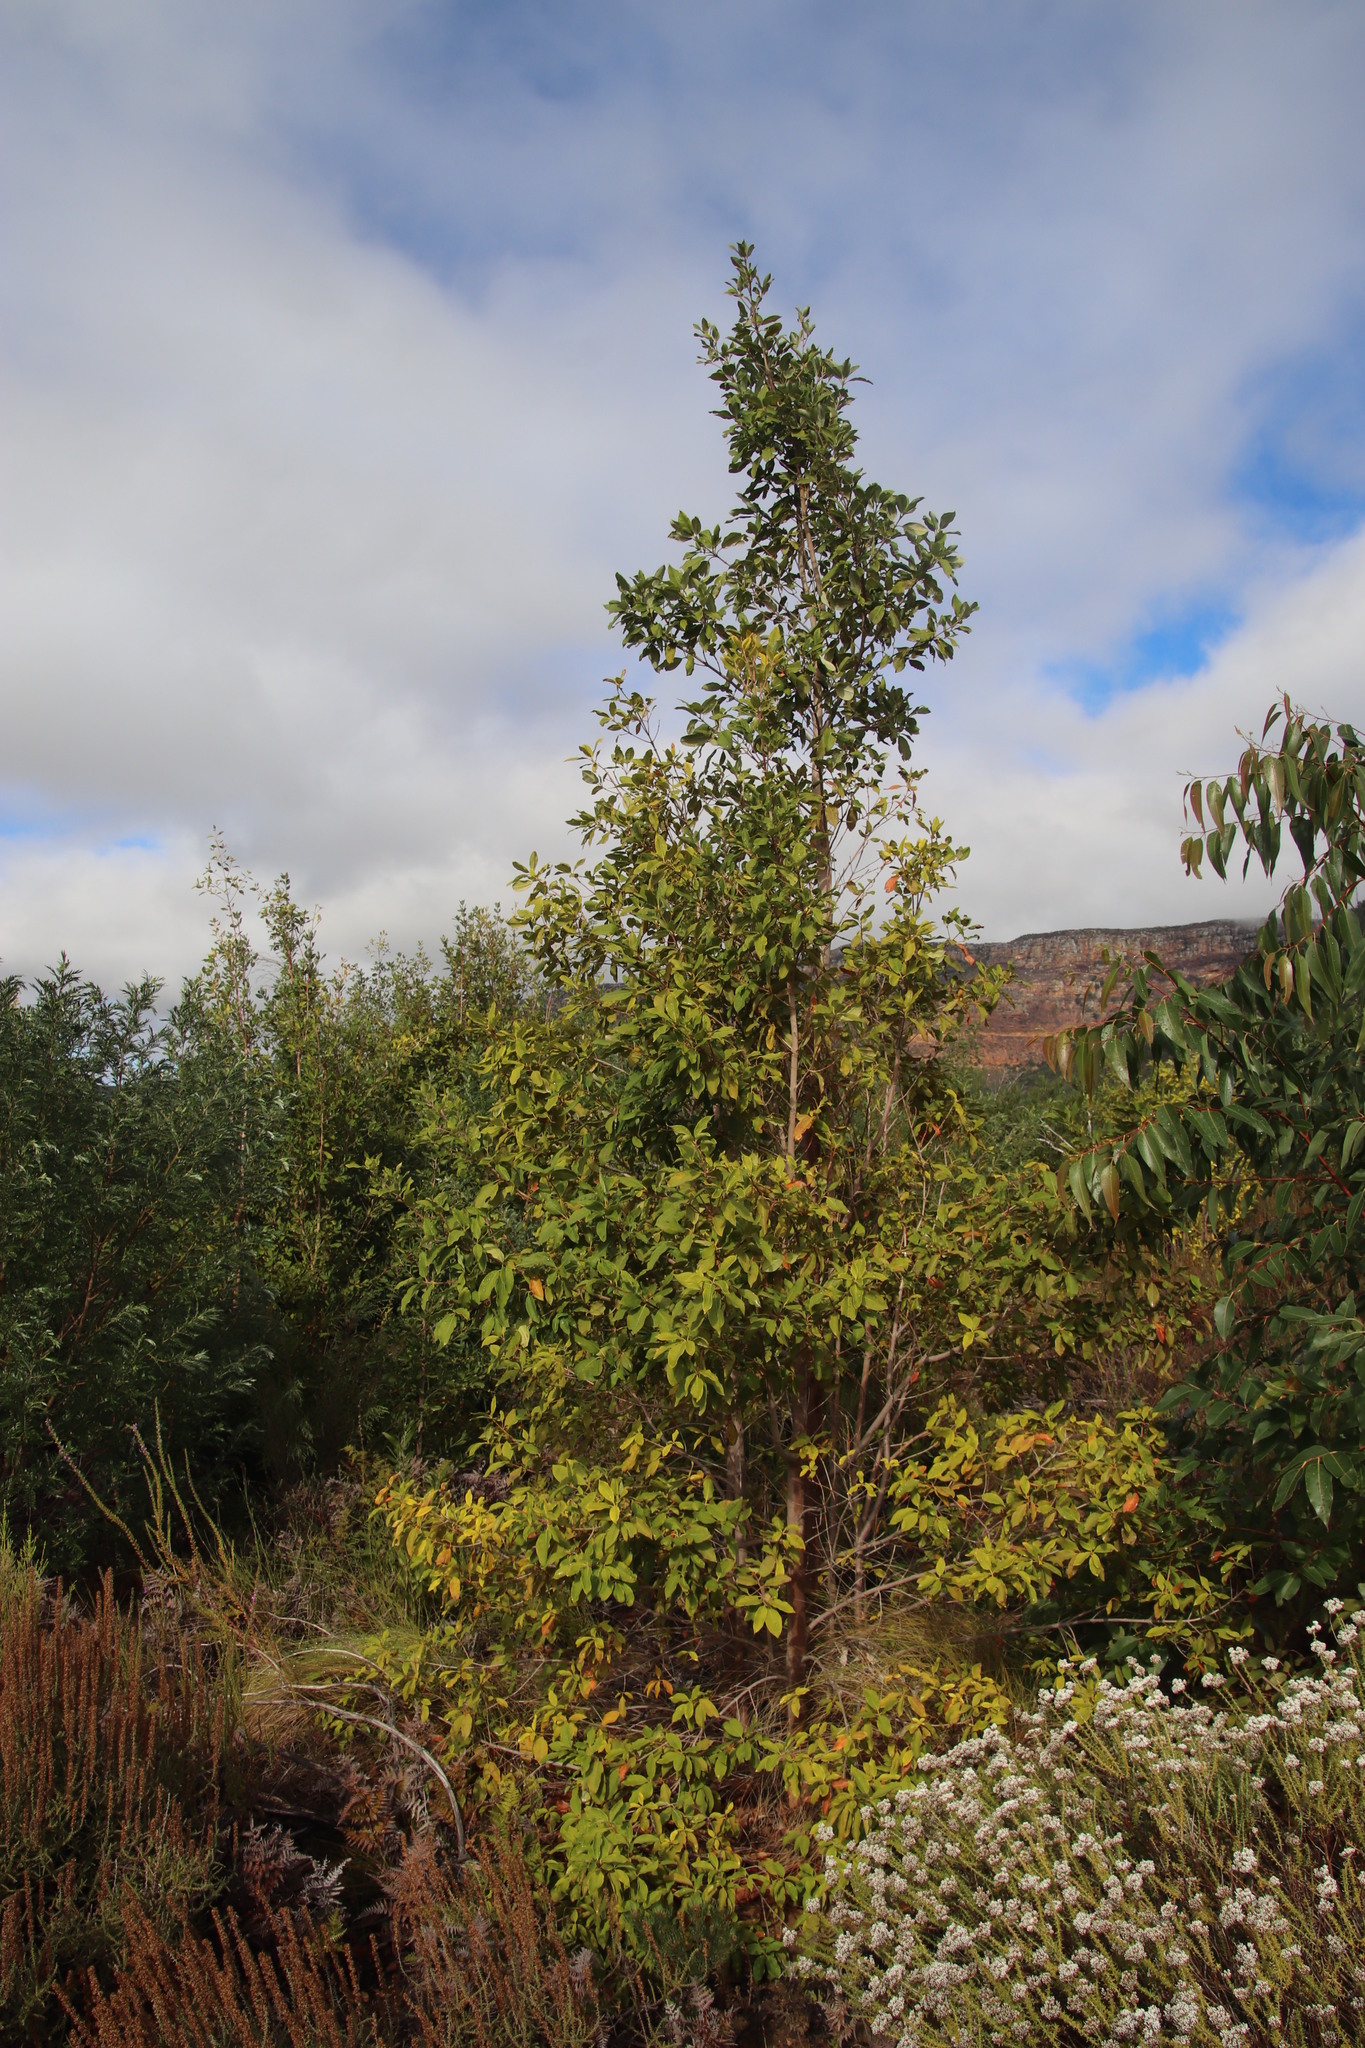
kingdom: Plantae
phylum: Tracheophyta
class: Magnoliopsida
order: Myrtales
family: Myrtaceae
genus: Syncarpia
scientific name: Syncarpia glomulifera
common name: Turpentine tree
